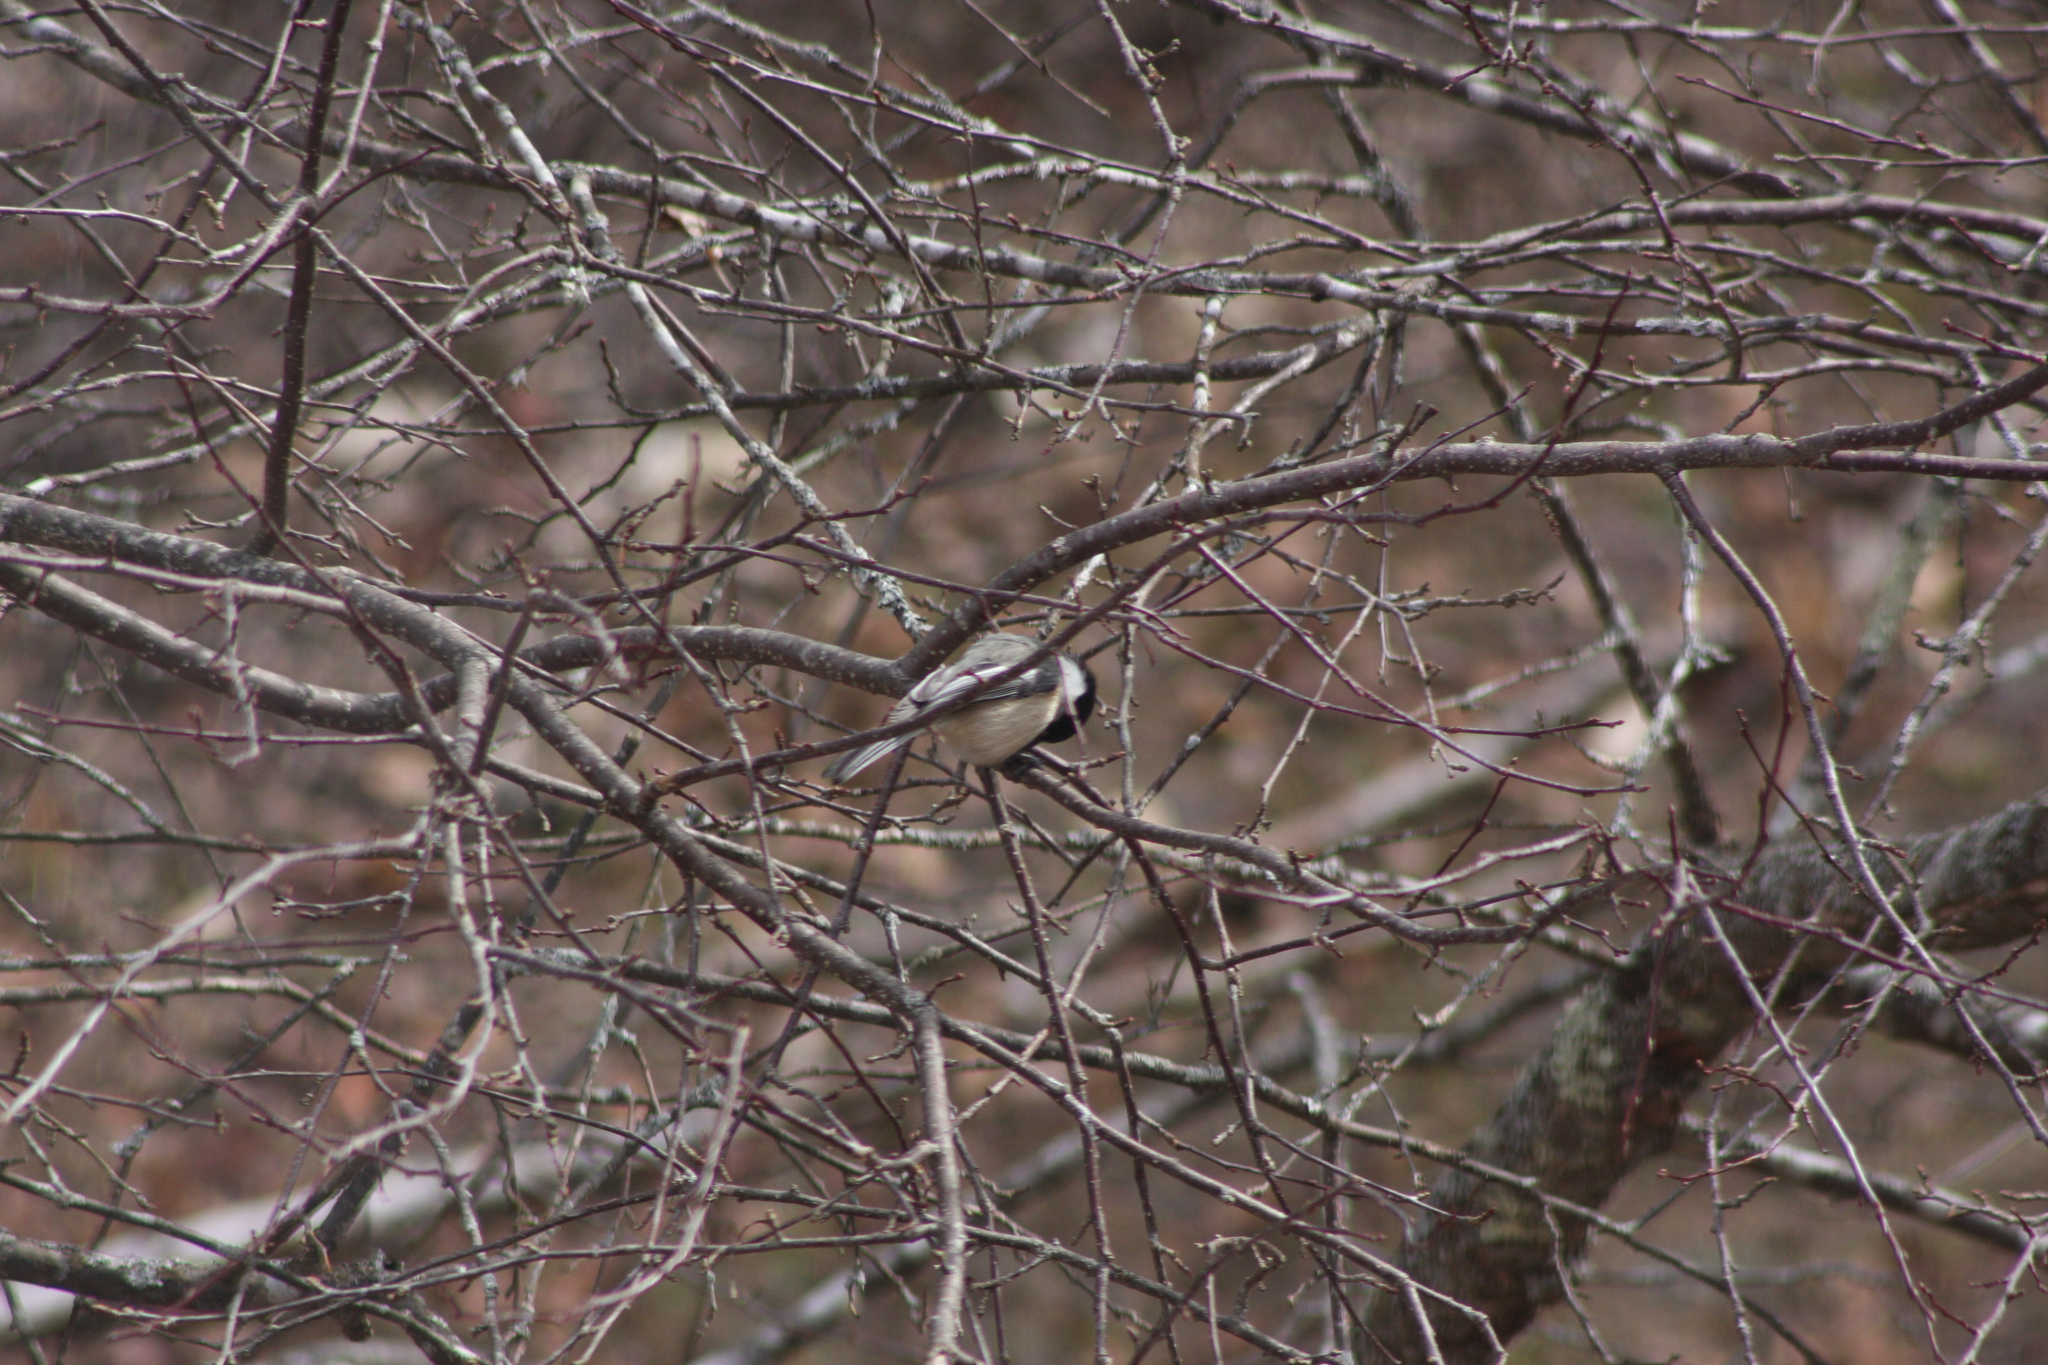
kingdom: Animalia
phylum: Chordata
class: Aves
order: Passeriformes
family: Paridae
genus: Poecile
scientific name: Poecile atricapillus
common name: Black-capped chickadee
